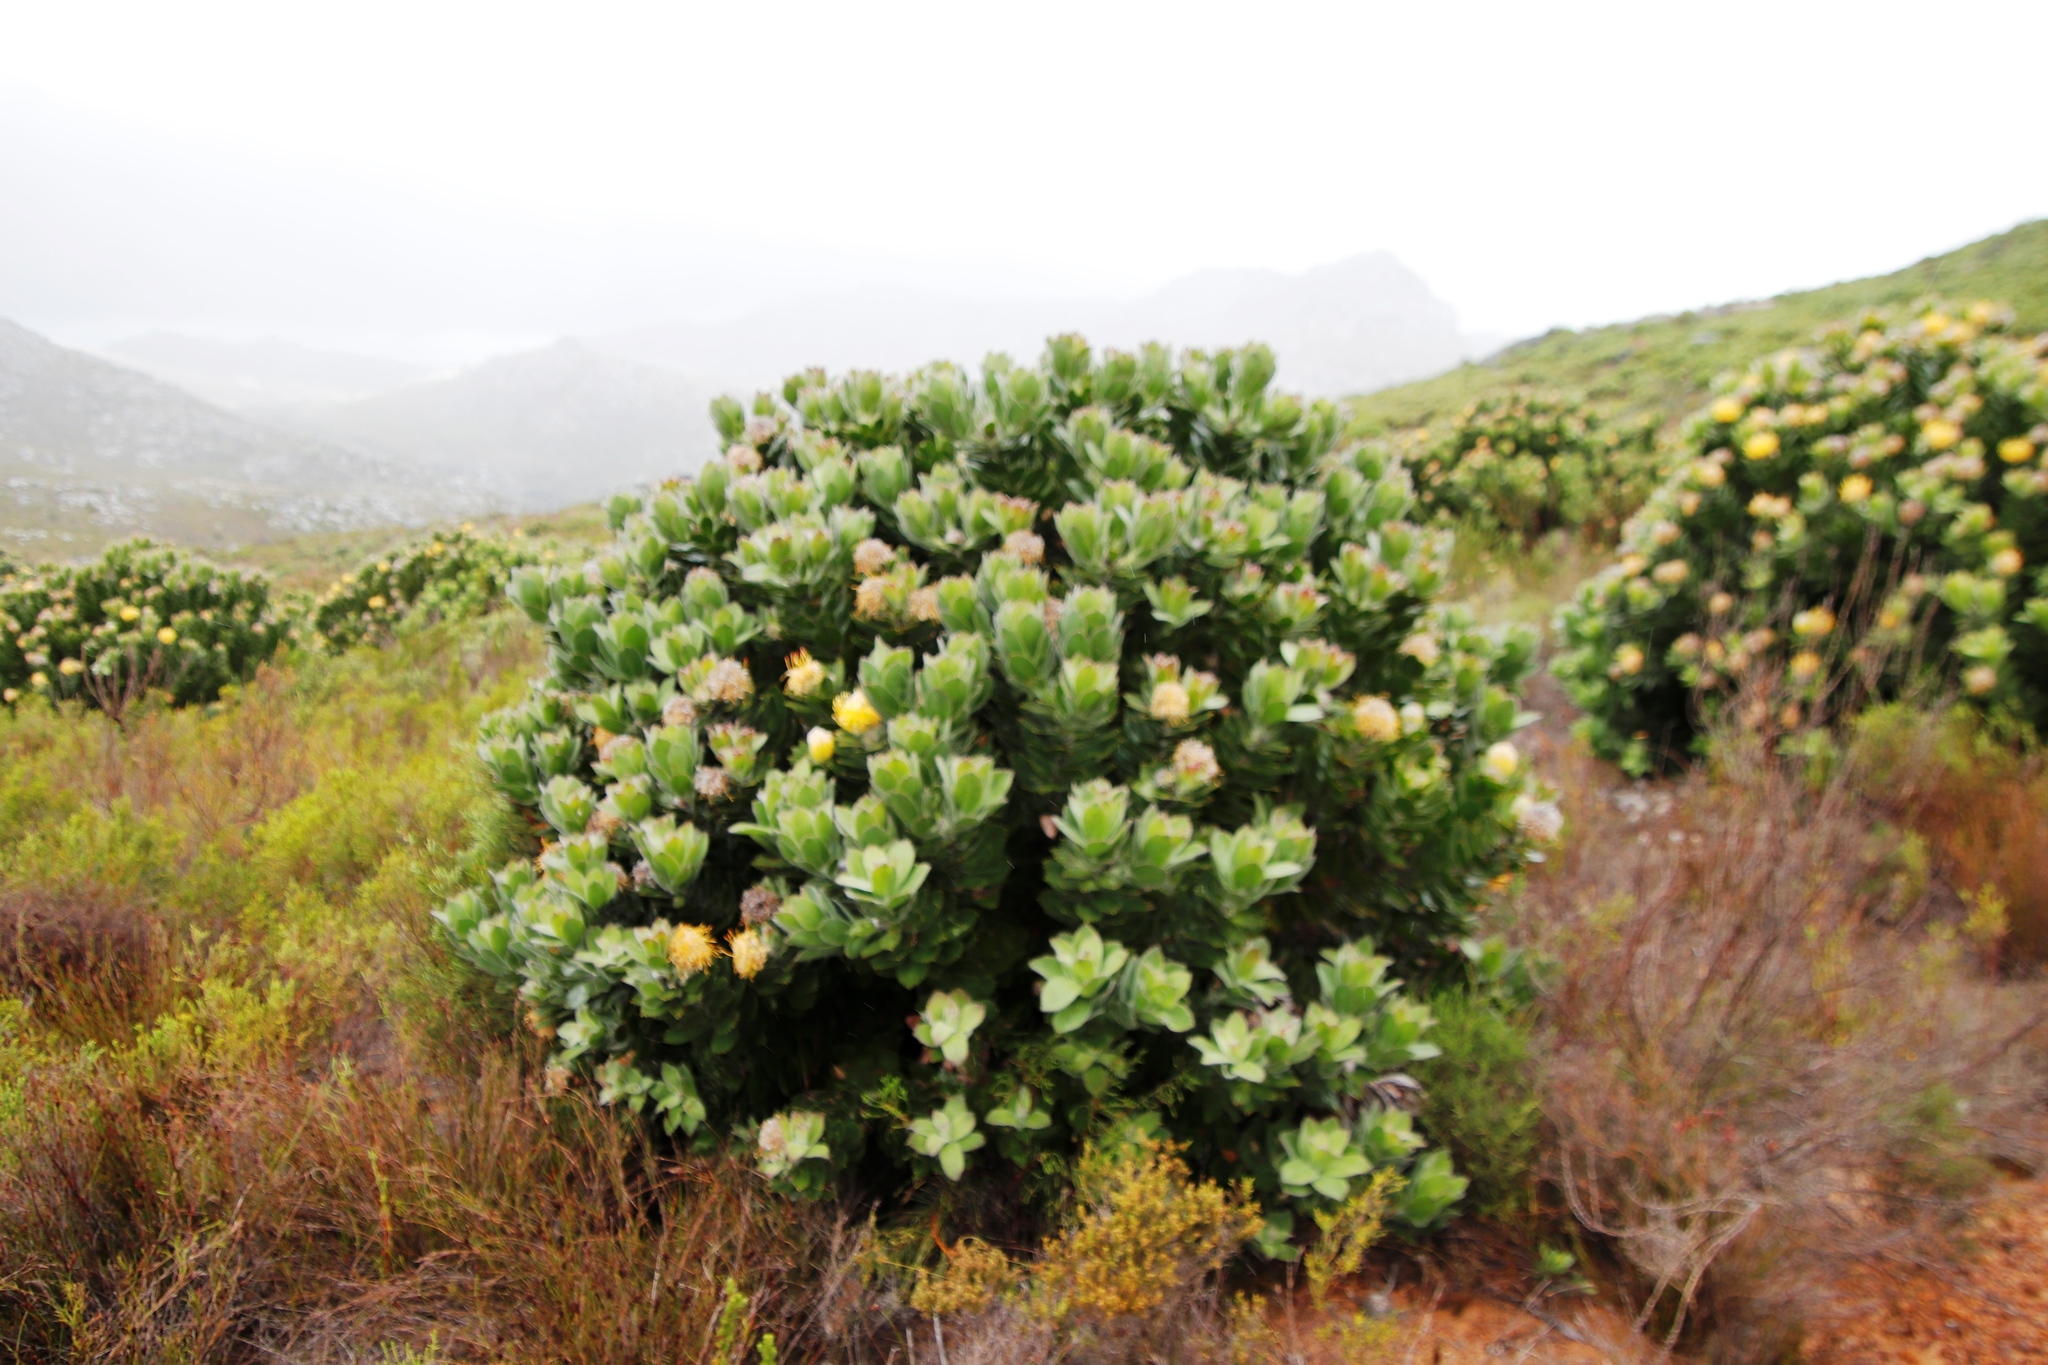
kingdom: Plantae
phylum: Tracheophyta
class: Magnoliopsida
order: Proteales
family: Proteaceae
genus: Leucospermum
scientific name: Leucospermum conocarpodendron
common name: Tree pincushion
